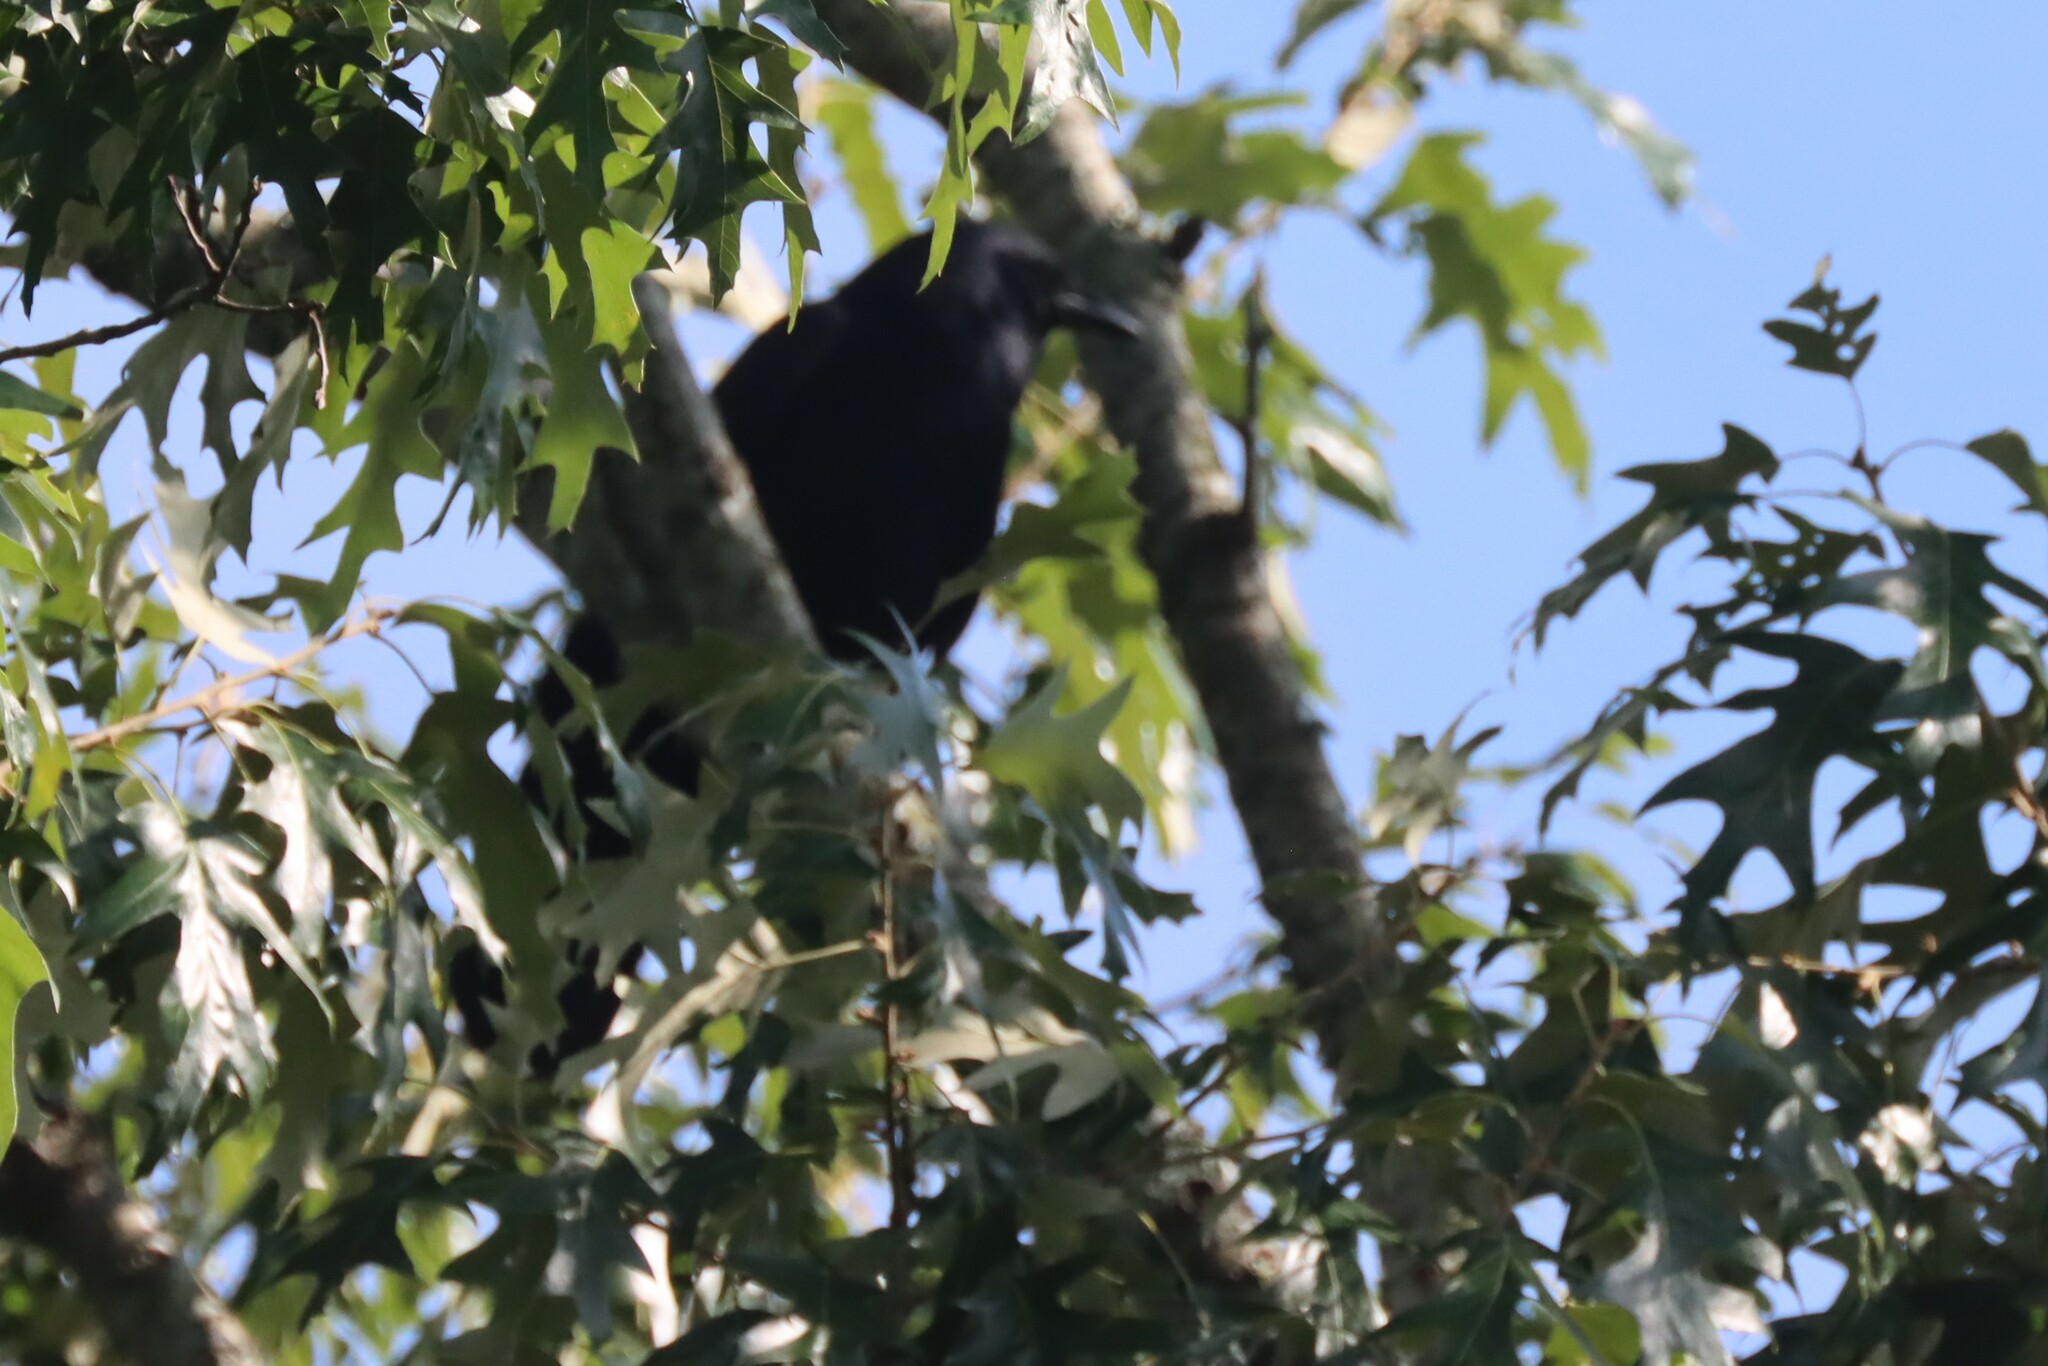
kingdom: Animalia
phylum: Chordata
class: Aves
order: Passeriformes
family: Corvidae
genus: Corvus
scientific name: Corvus ossifragus
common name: Fish crow
